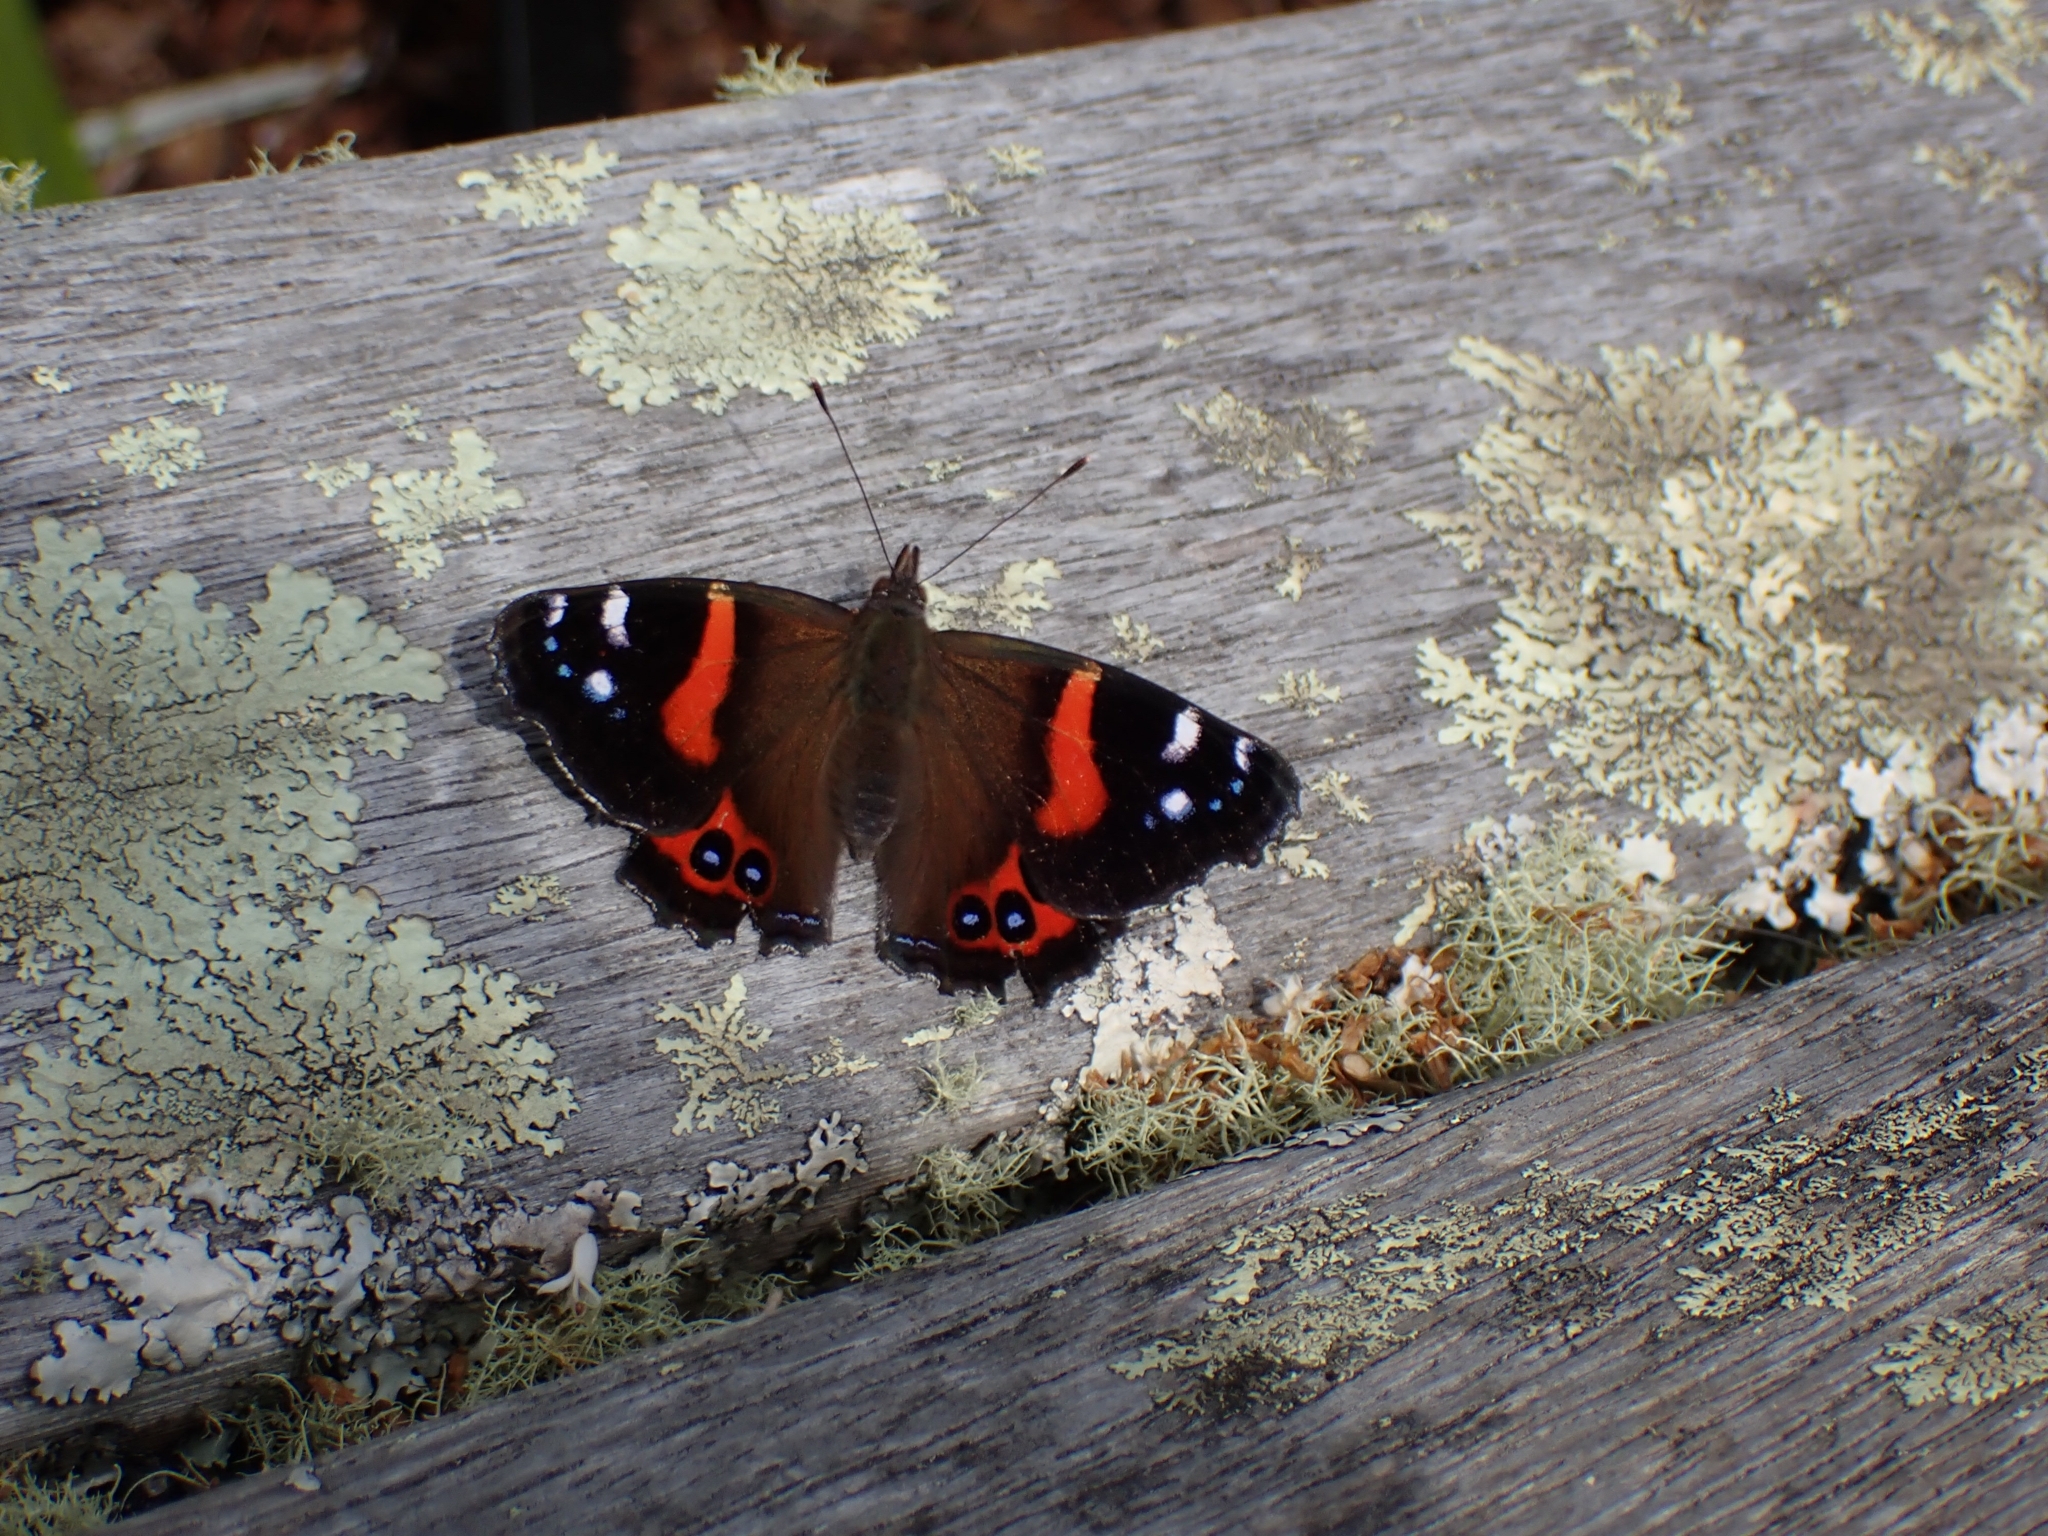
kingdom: Animalia
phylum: Arthropoda
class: Insecta
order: Lepidoptera
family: Nymphalidae
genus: Vanessa
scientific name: Vanessa gonerilla
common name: New zealand red admiral
